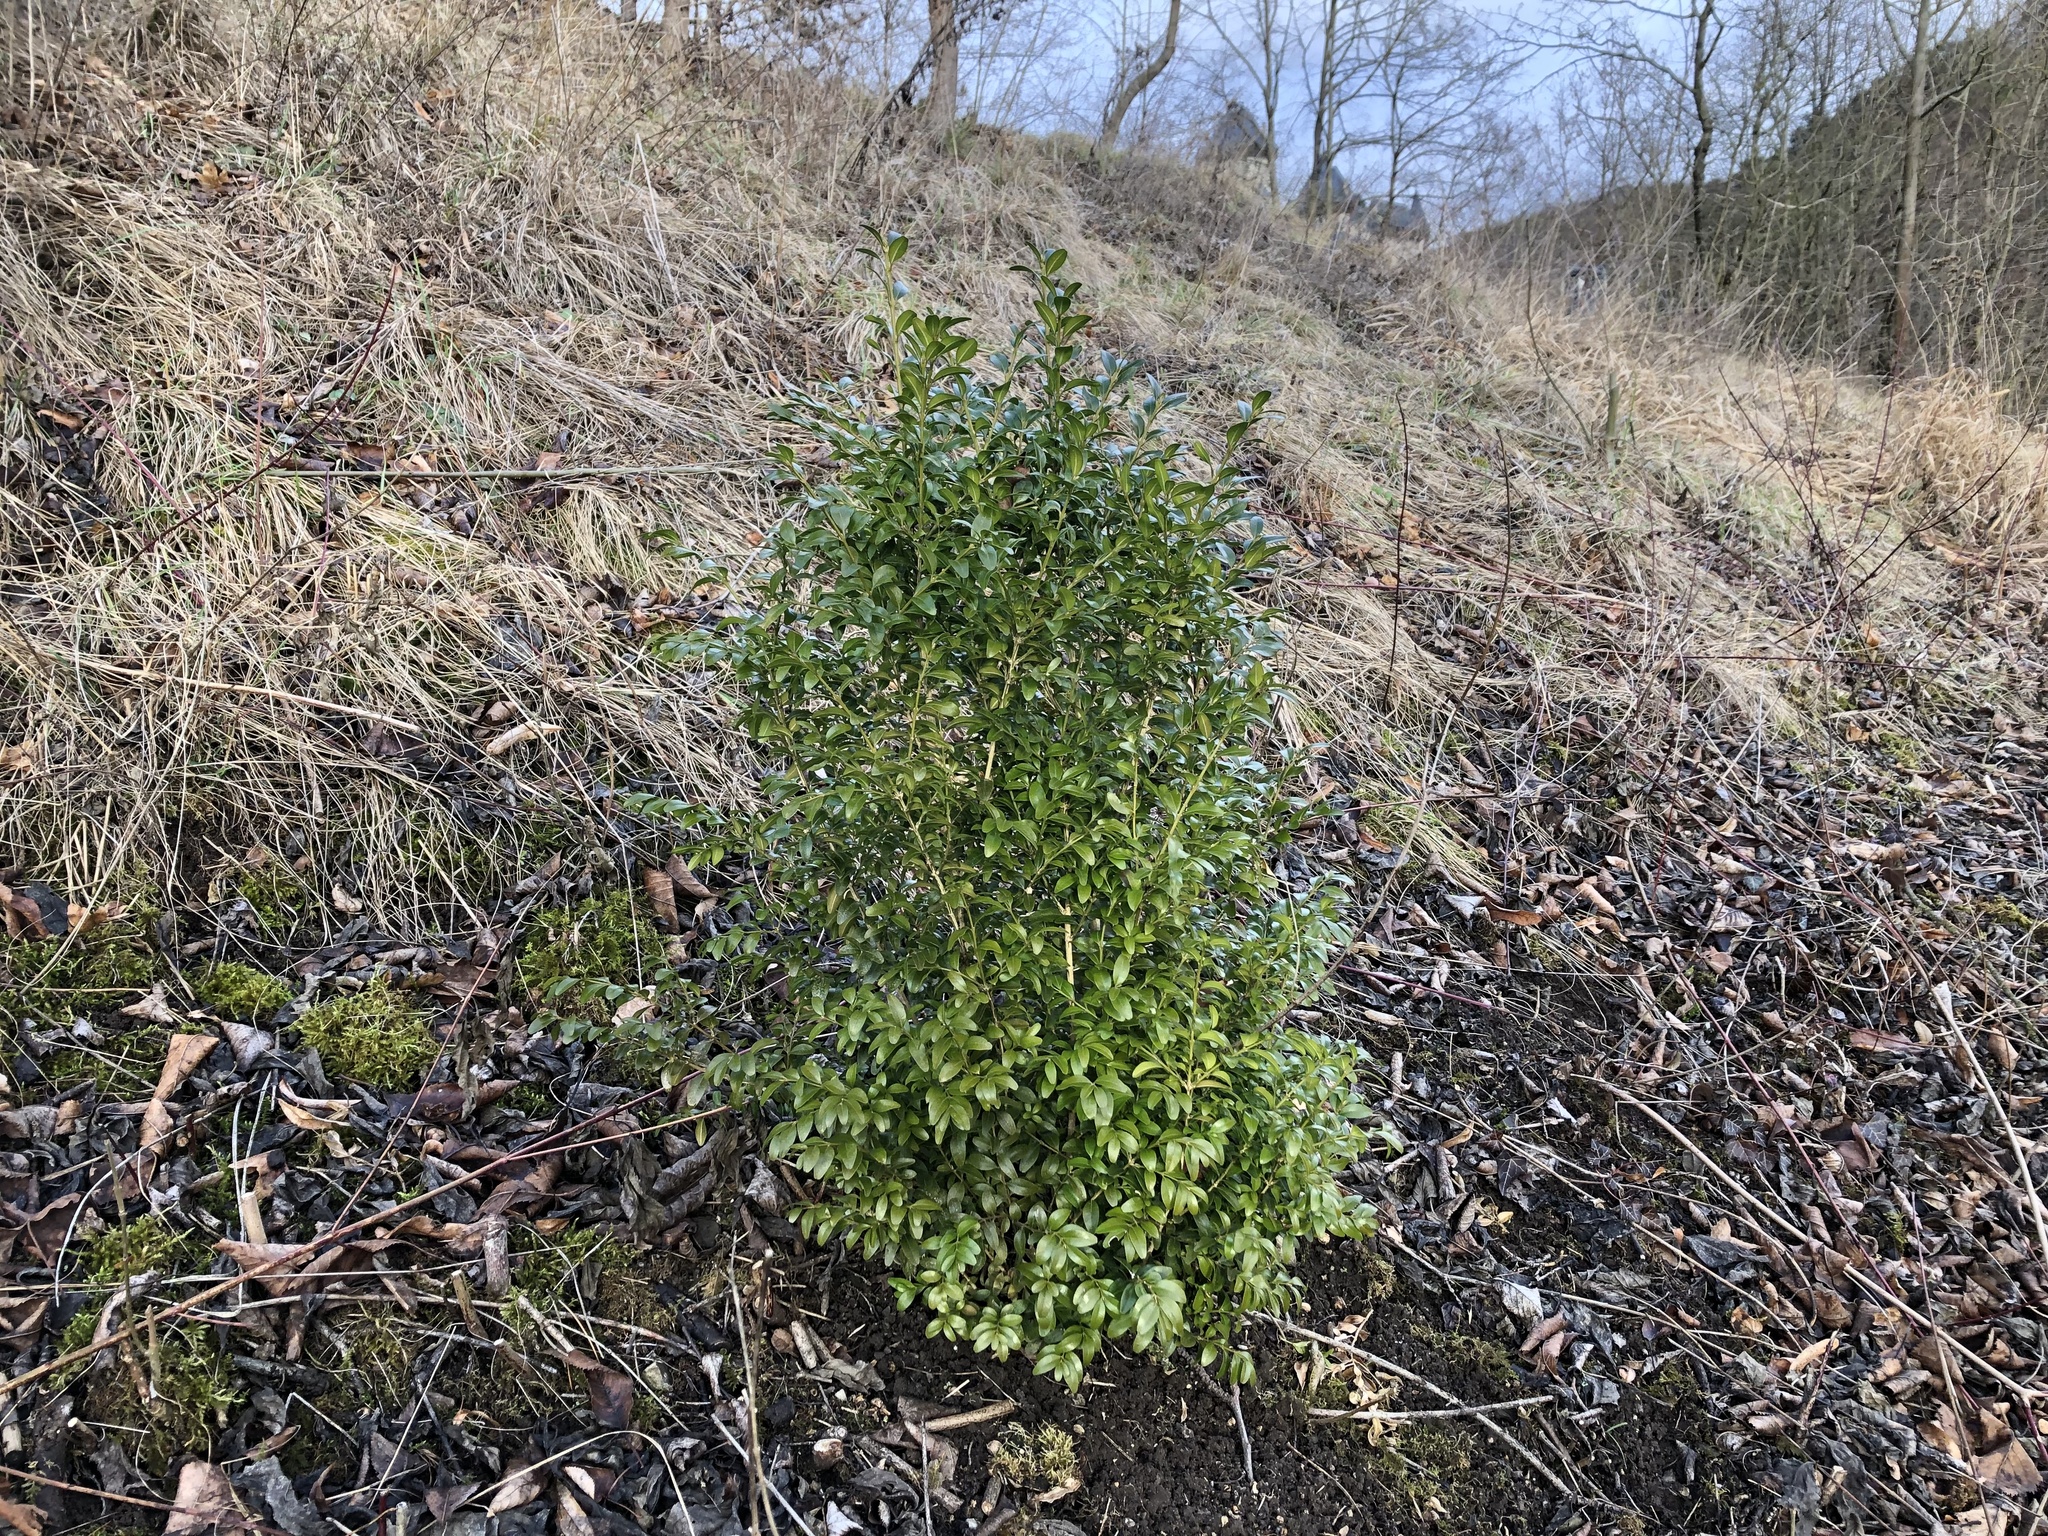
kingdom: Plantae
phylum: Tracheophyta
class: Magnoliopsida
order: Buxales
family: Buxaceae
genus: Buxus
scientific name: Buxus sempervirens
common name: Box
